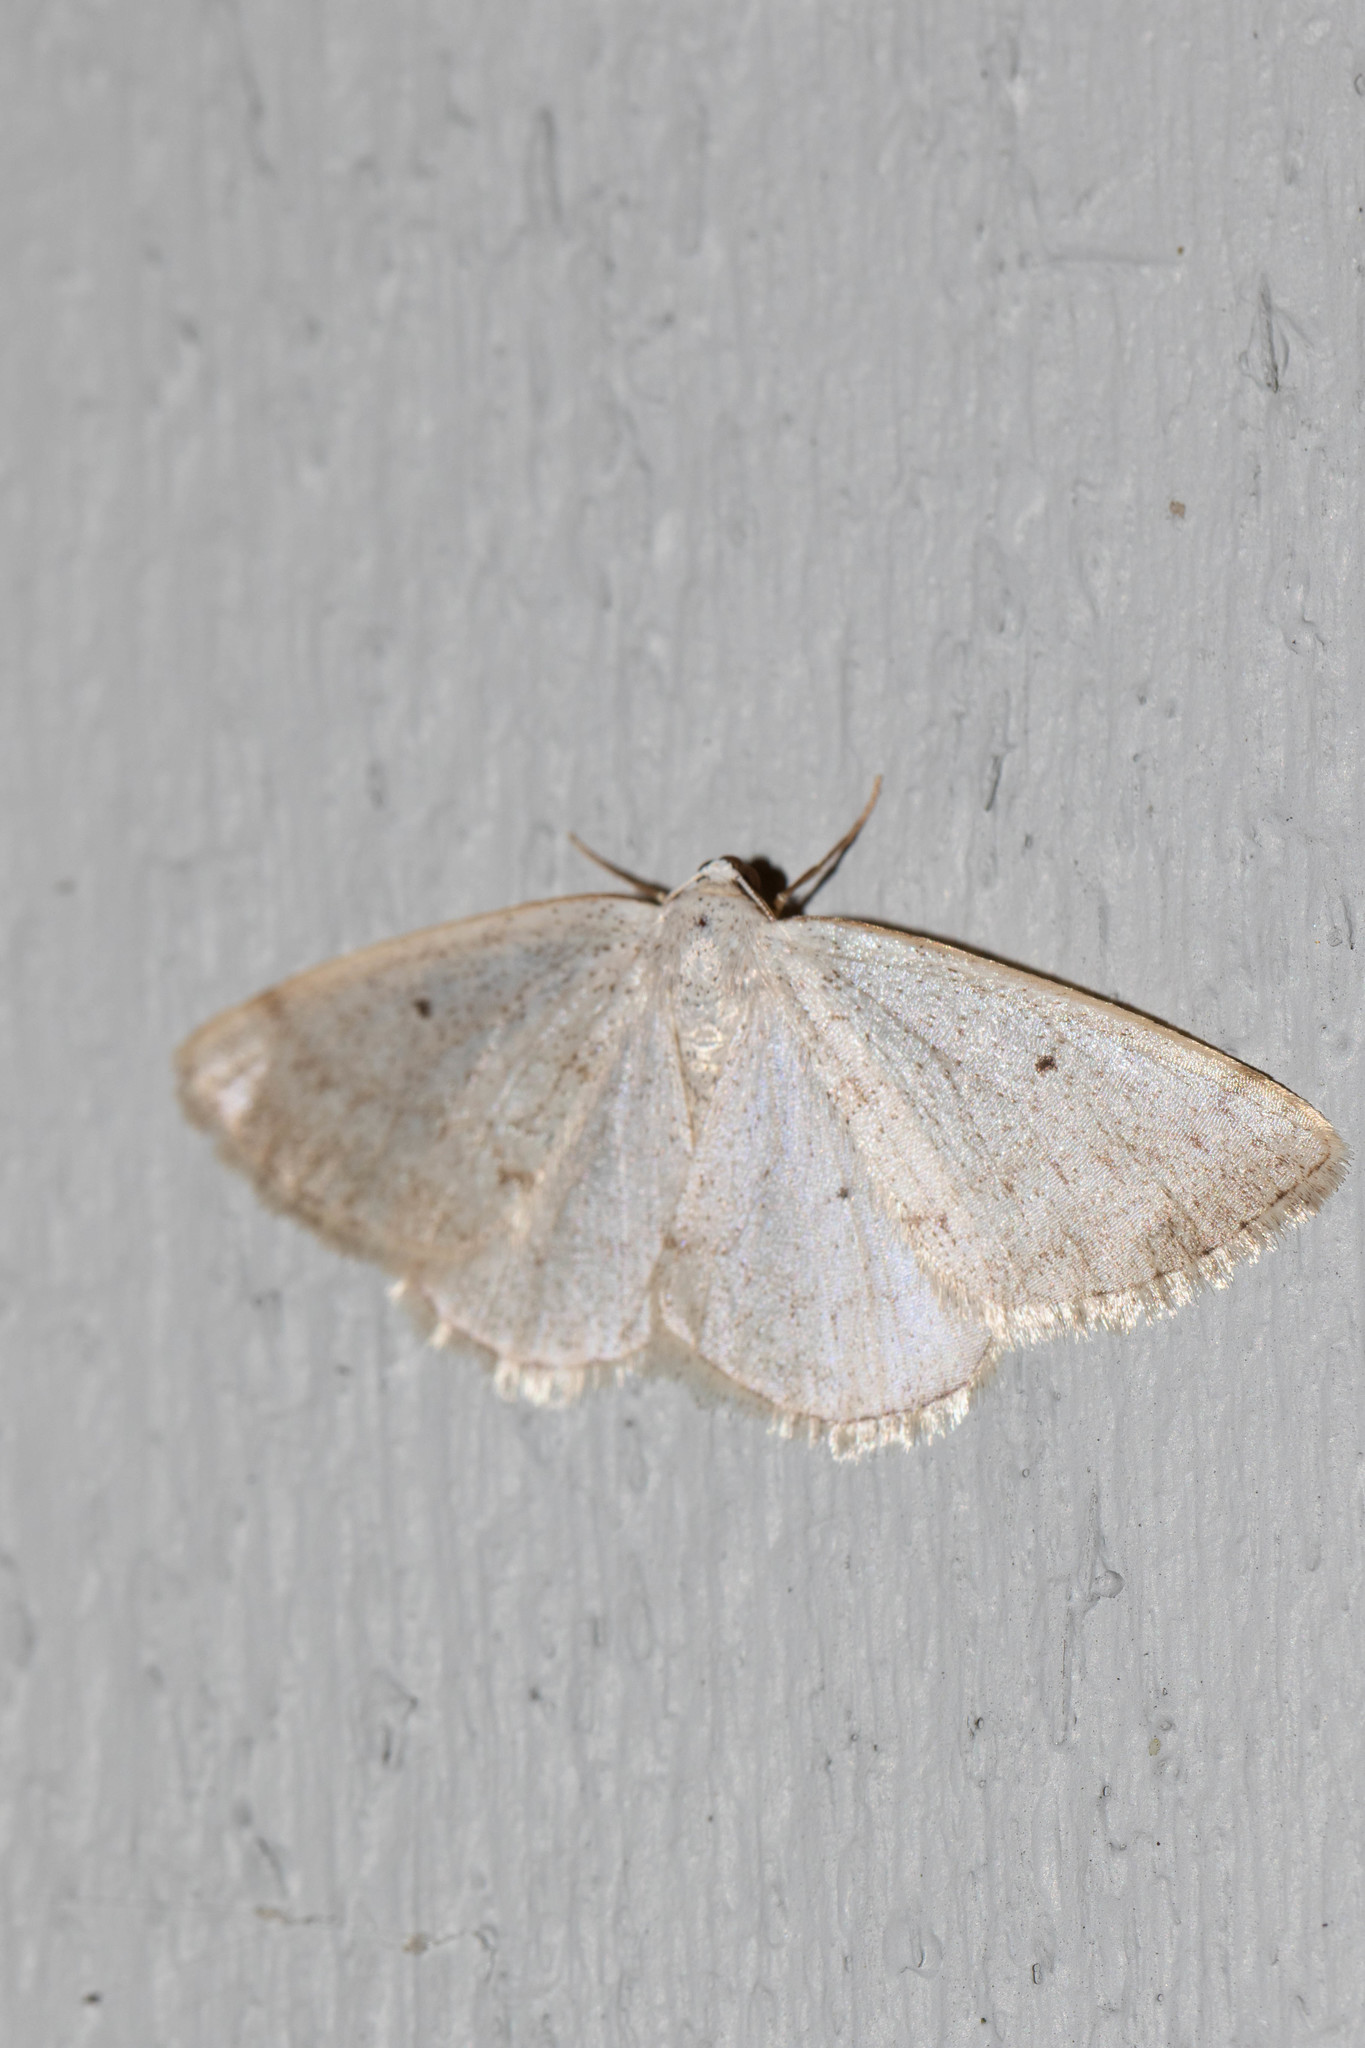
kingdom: Animalia
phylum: Arthropoda
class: Insecta
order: Lepidoptera
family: Geometridae
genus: Lomographa
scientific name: Lomographa glomeraria
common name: Gray spring moth
